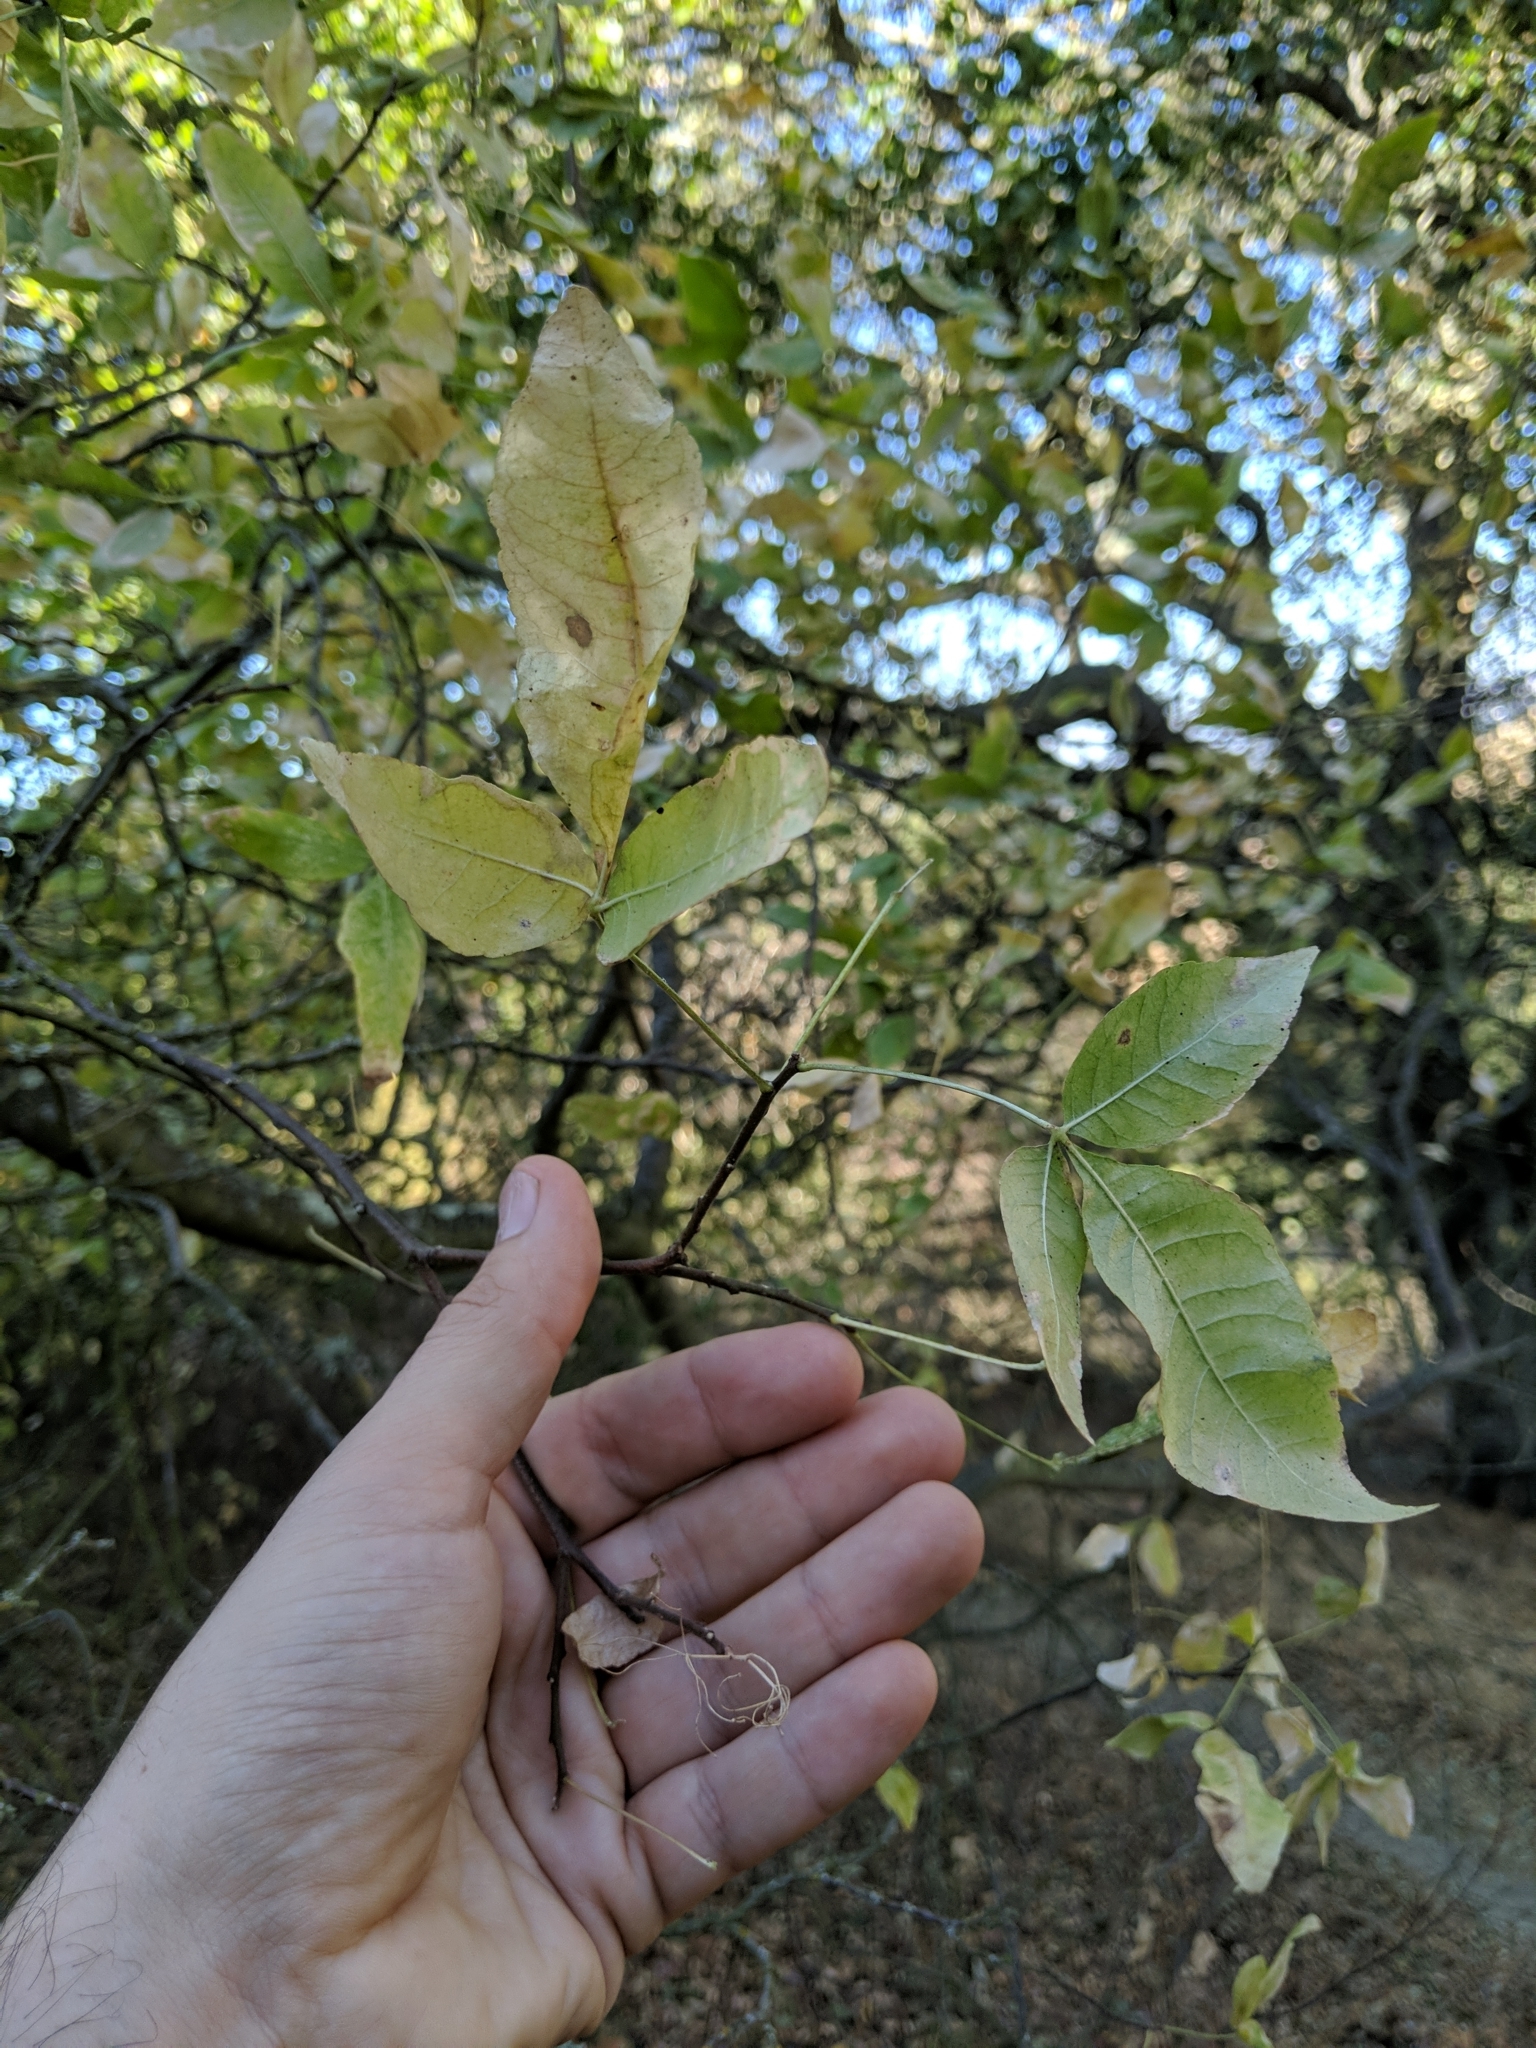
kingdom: Plantae
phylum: Tracheophyta
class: Magnoliopsida
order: Sapindales
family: Rutaceae
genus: Ptelea
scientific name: Ptelea crenulata
